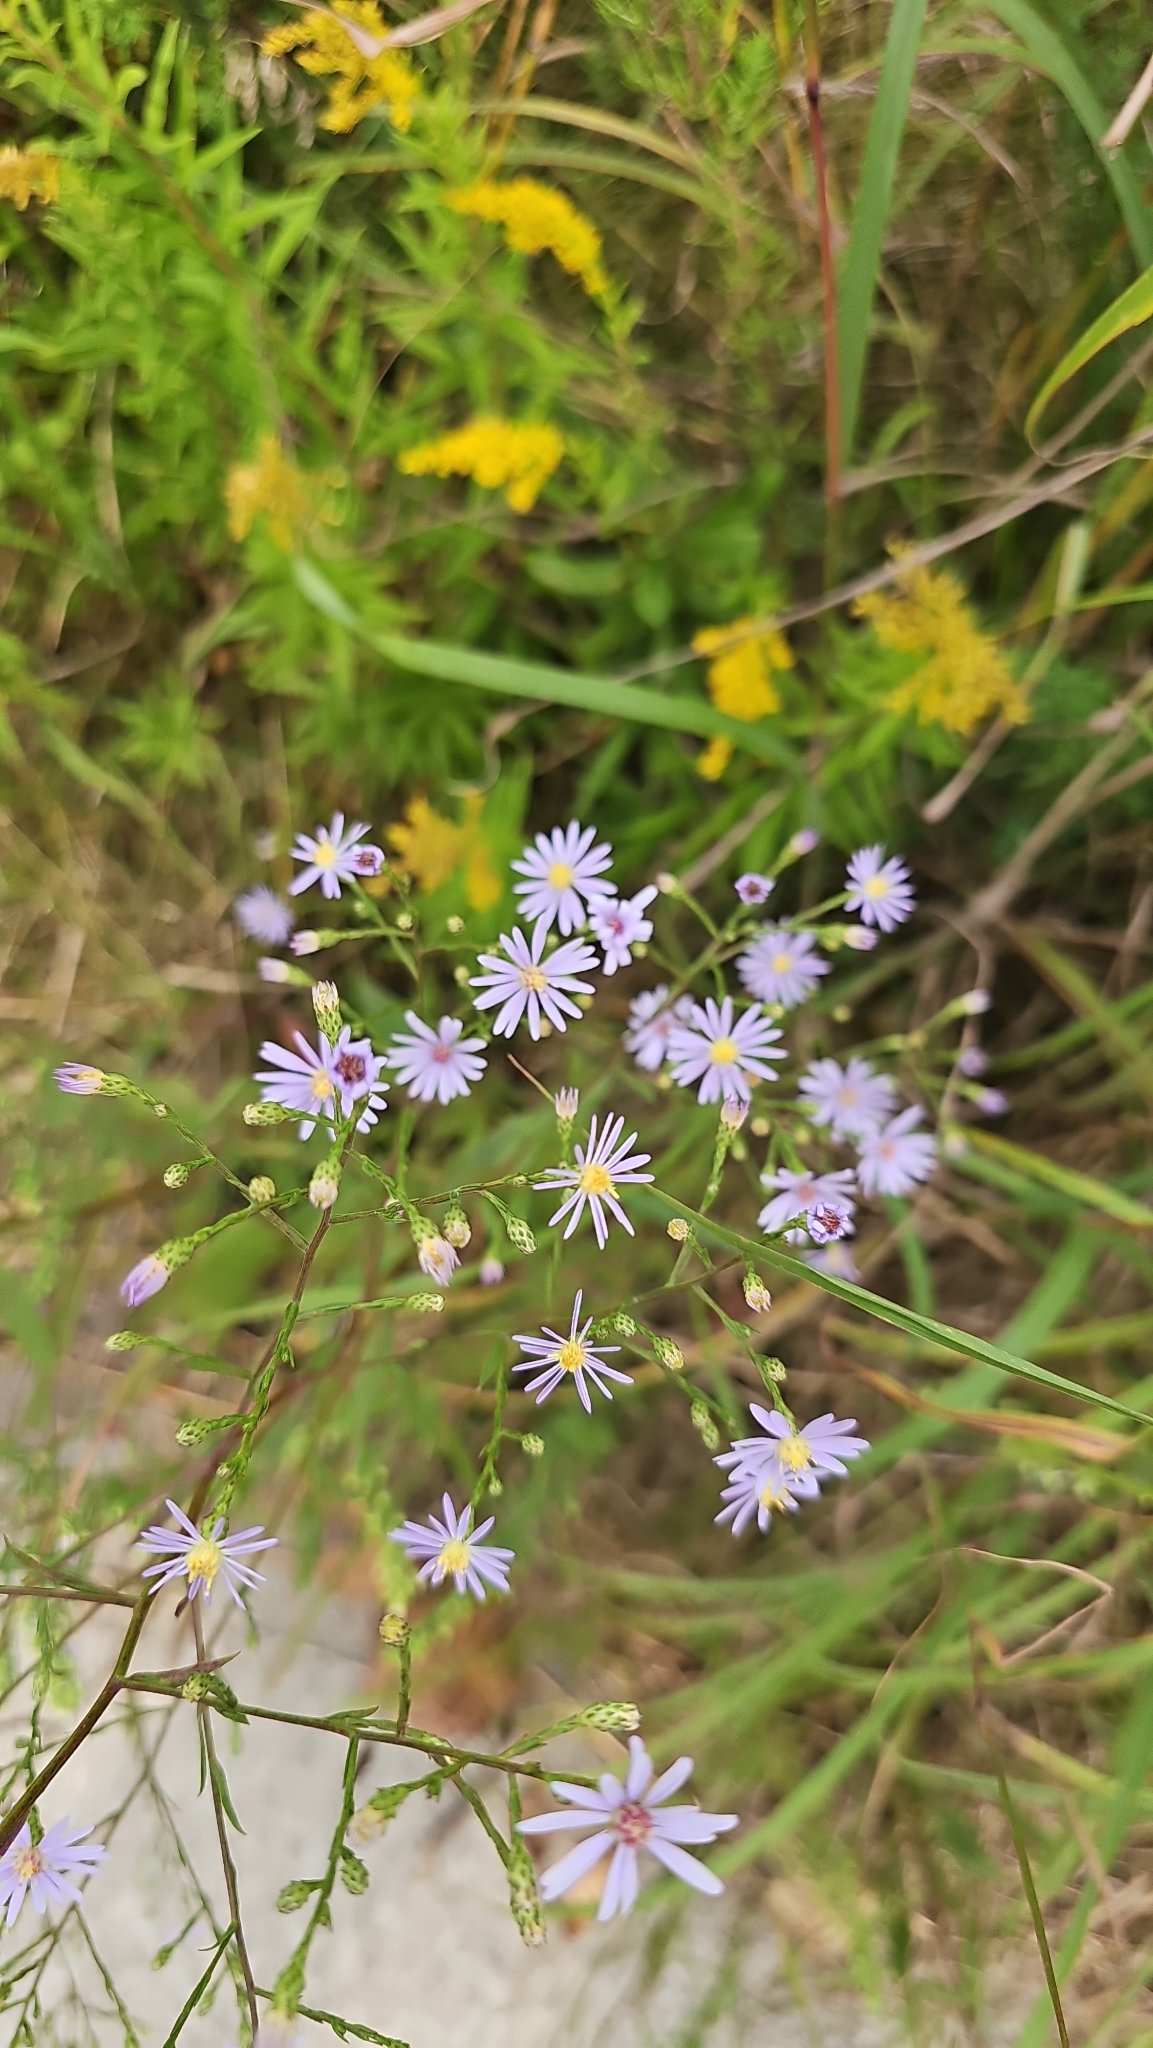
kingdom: Plantae
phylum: Tracheophyta
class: Magnoliopsida
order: Asterales
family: Asteraceae
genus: Symphyotrichum
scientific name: Symphyotrichum oolentangiense
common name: Azure aster
